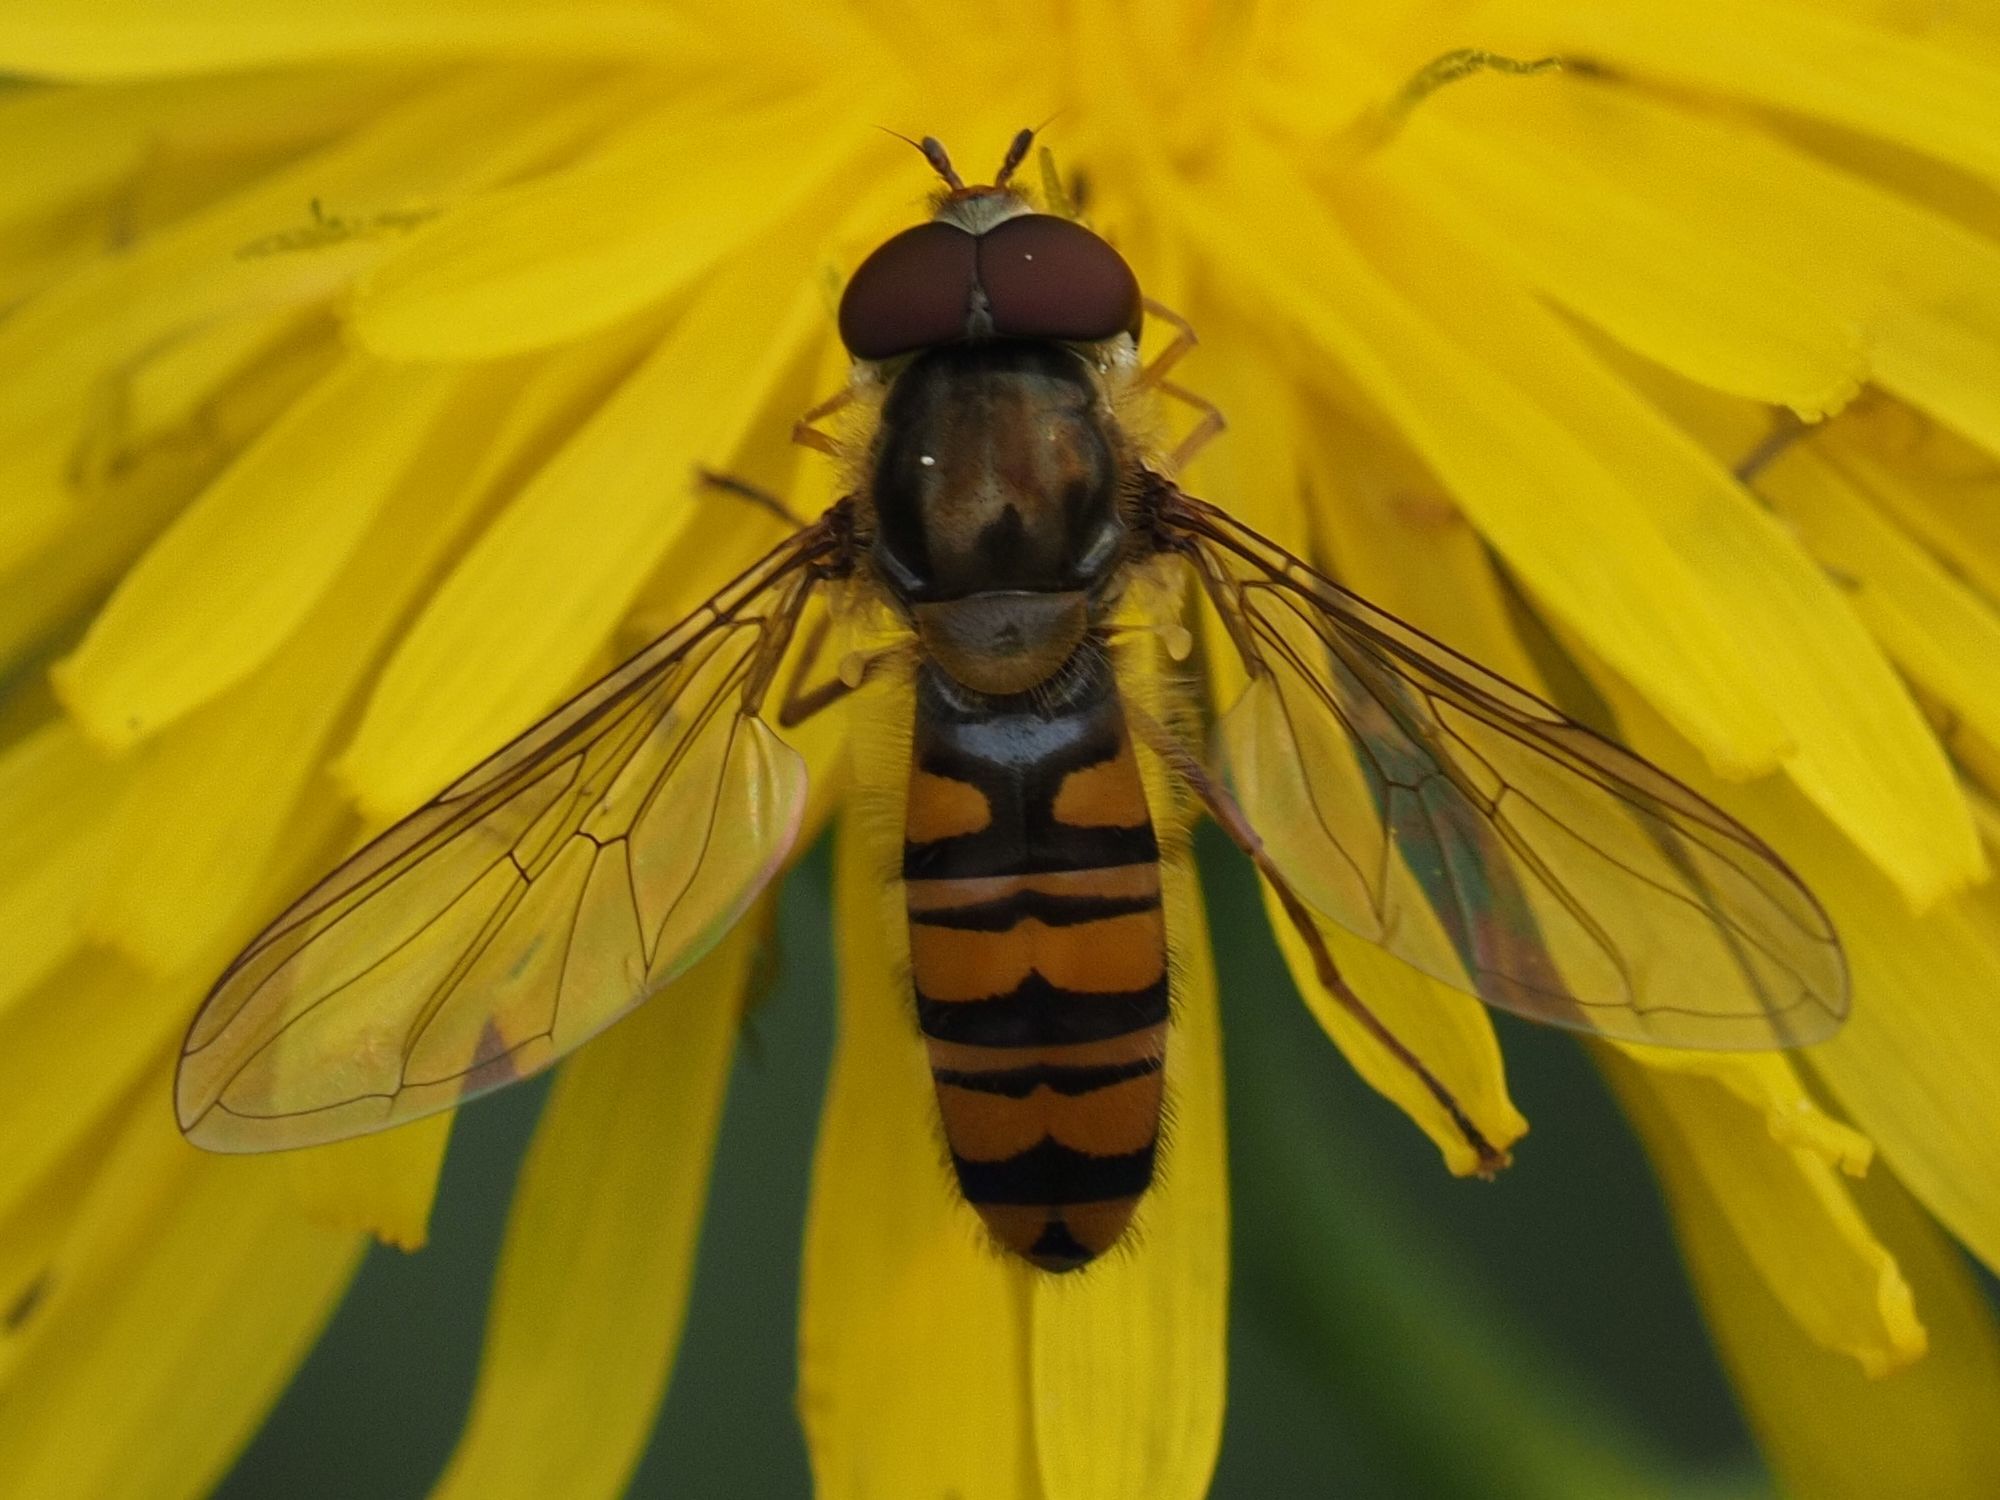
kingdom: Animalia
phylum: Arthropoda
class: Insecta
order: Diptera
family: Syrphidae
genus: Episyrphus
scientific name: Episyrphus balteatus
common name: Marmalade hoverfly
